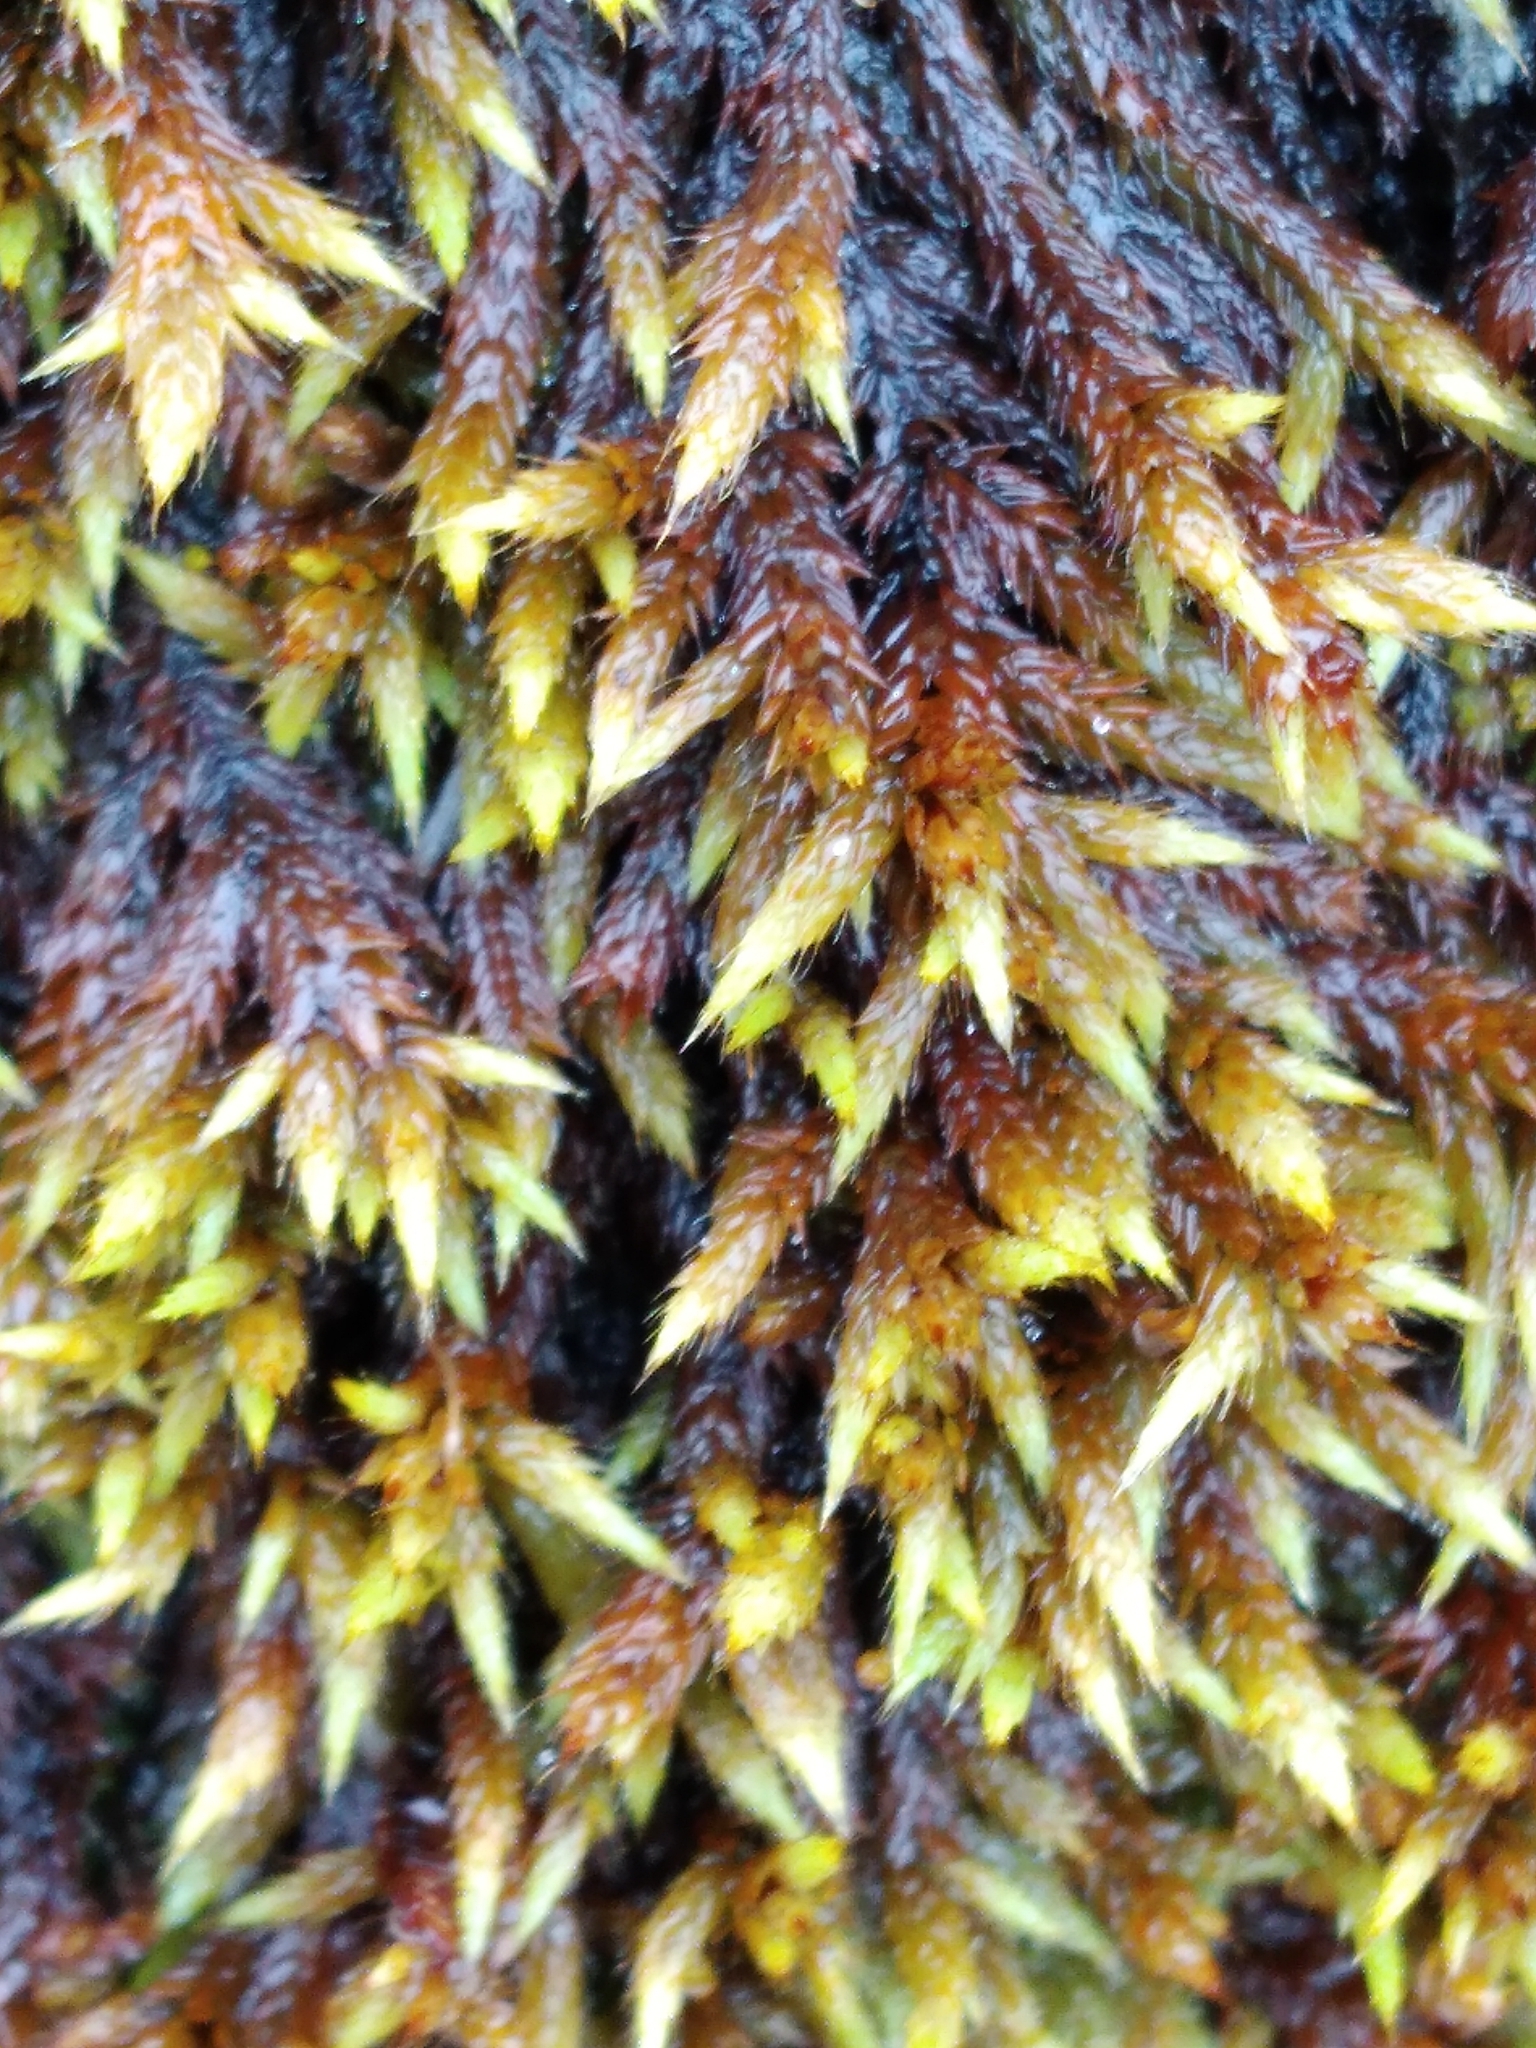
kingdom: Plantae
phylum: Bryophyta
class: Bryopsida
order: Hedwigiales
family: Hedwigiaceae
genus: Rhacocarpus
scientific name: Rhacocarpus purpurascens
